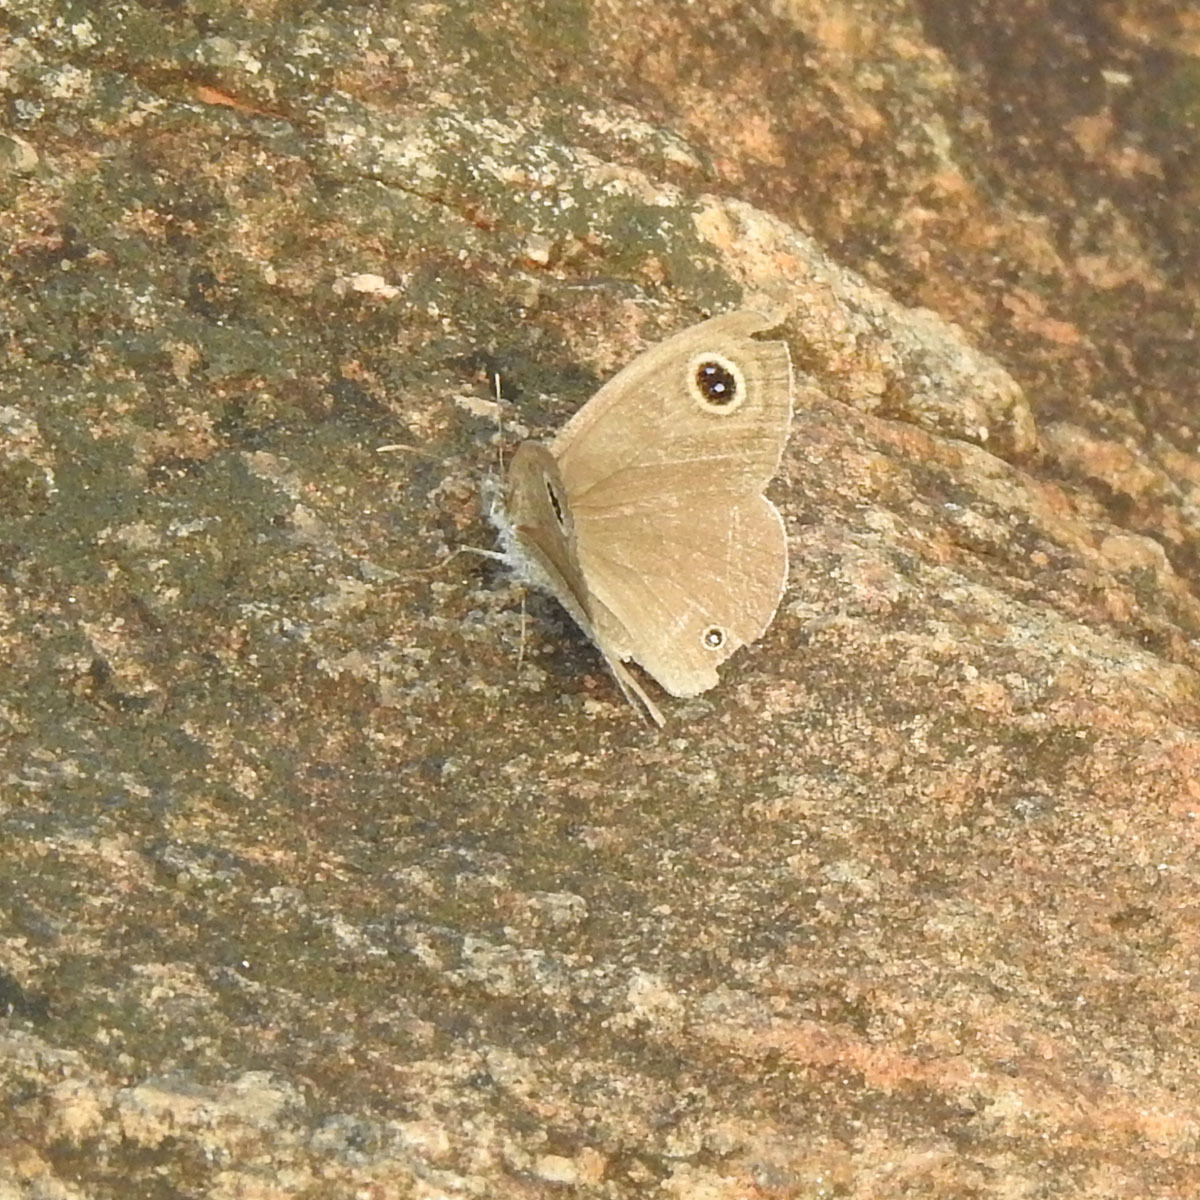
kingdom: Animalia
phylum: Arthropoda
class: Insecta
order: Lepidoptera
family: Nymphalidae
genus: Ypthima
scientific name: Ypthima asterope
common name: African ringlet
